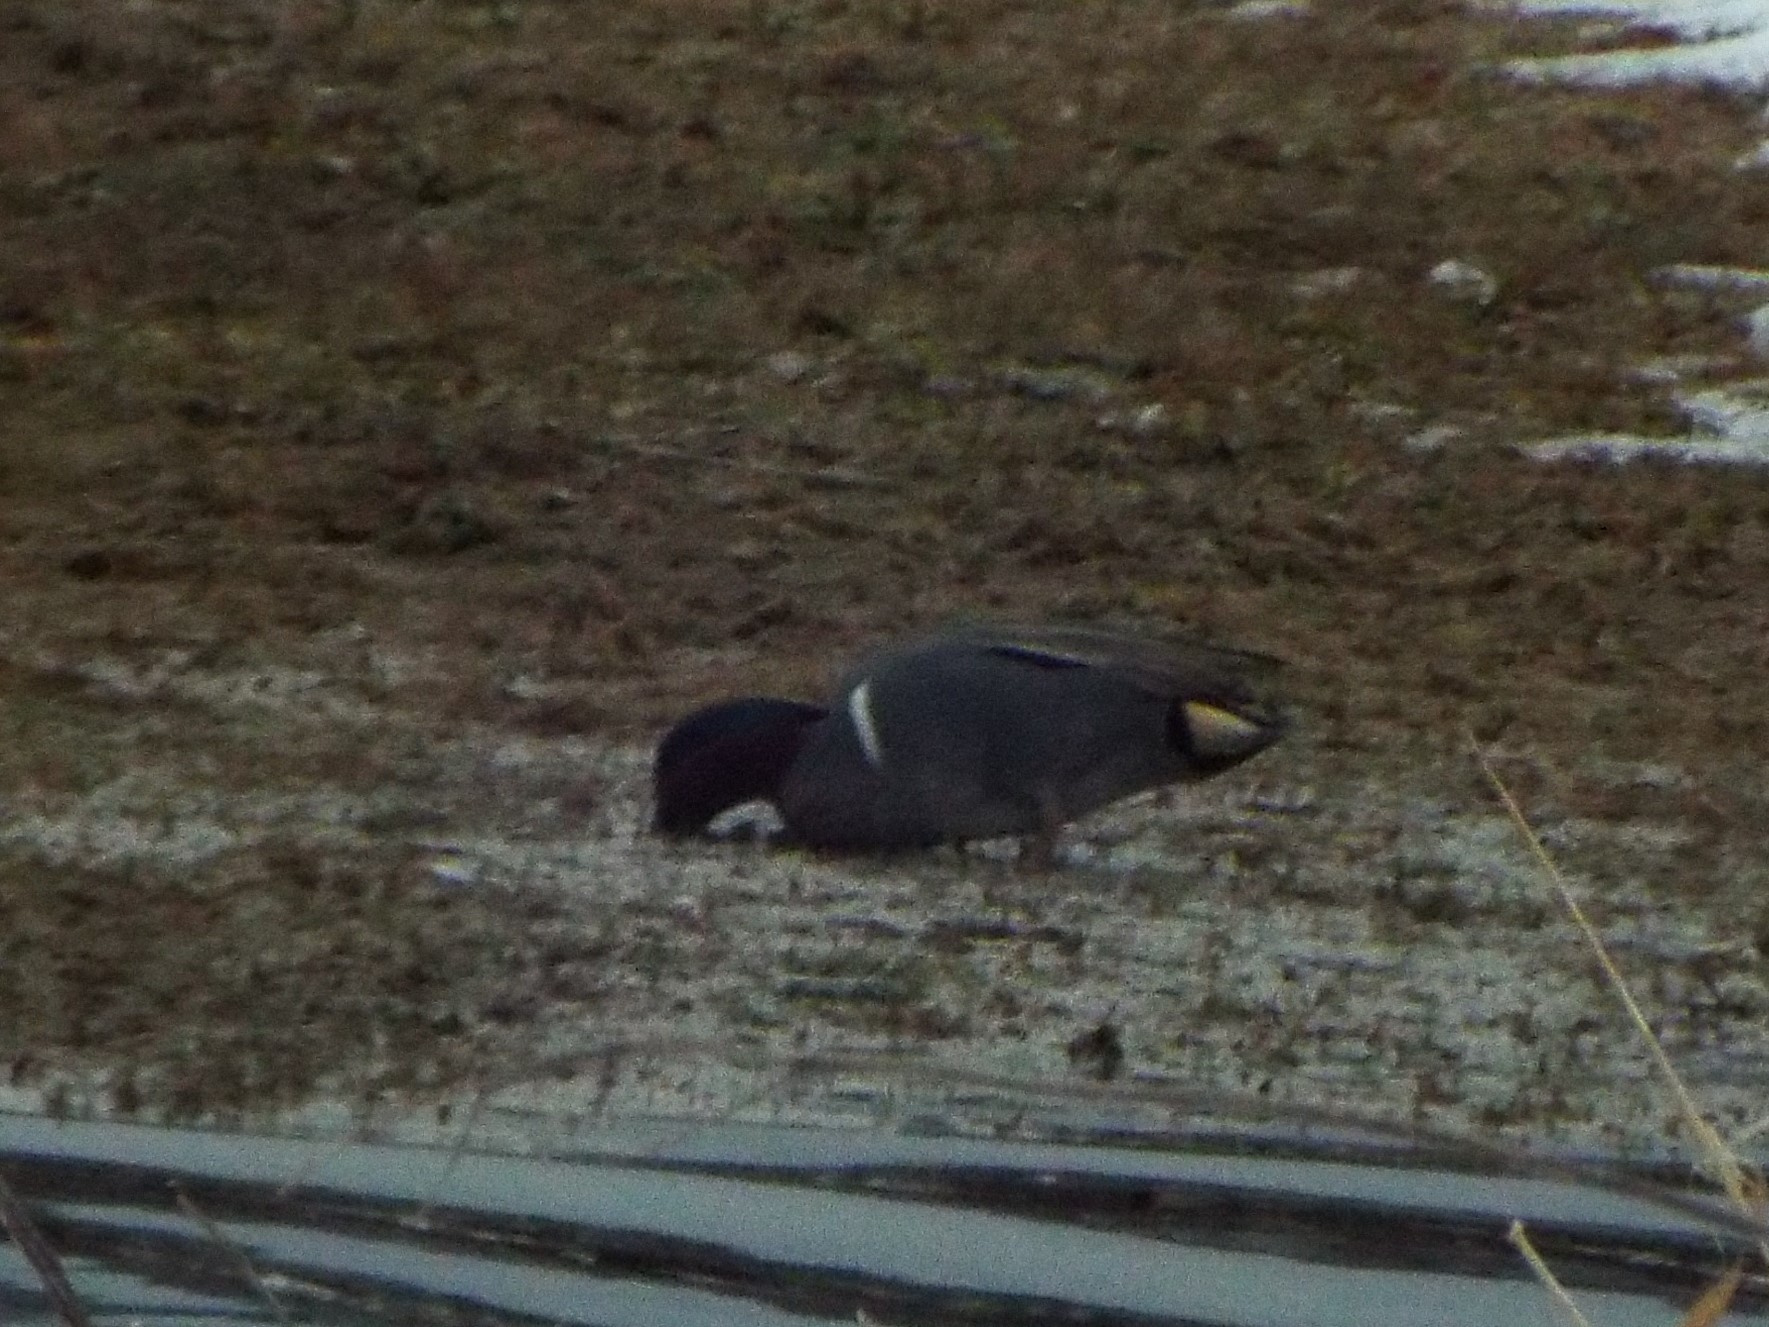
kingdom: Animalia
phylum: Chordata
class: Aves
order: Anseriformes
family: Anatidae
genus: Anas
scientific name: Anas carolinensis
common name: Green-winged teal
